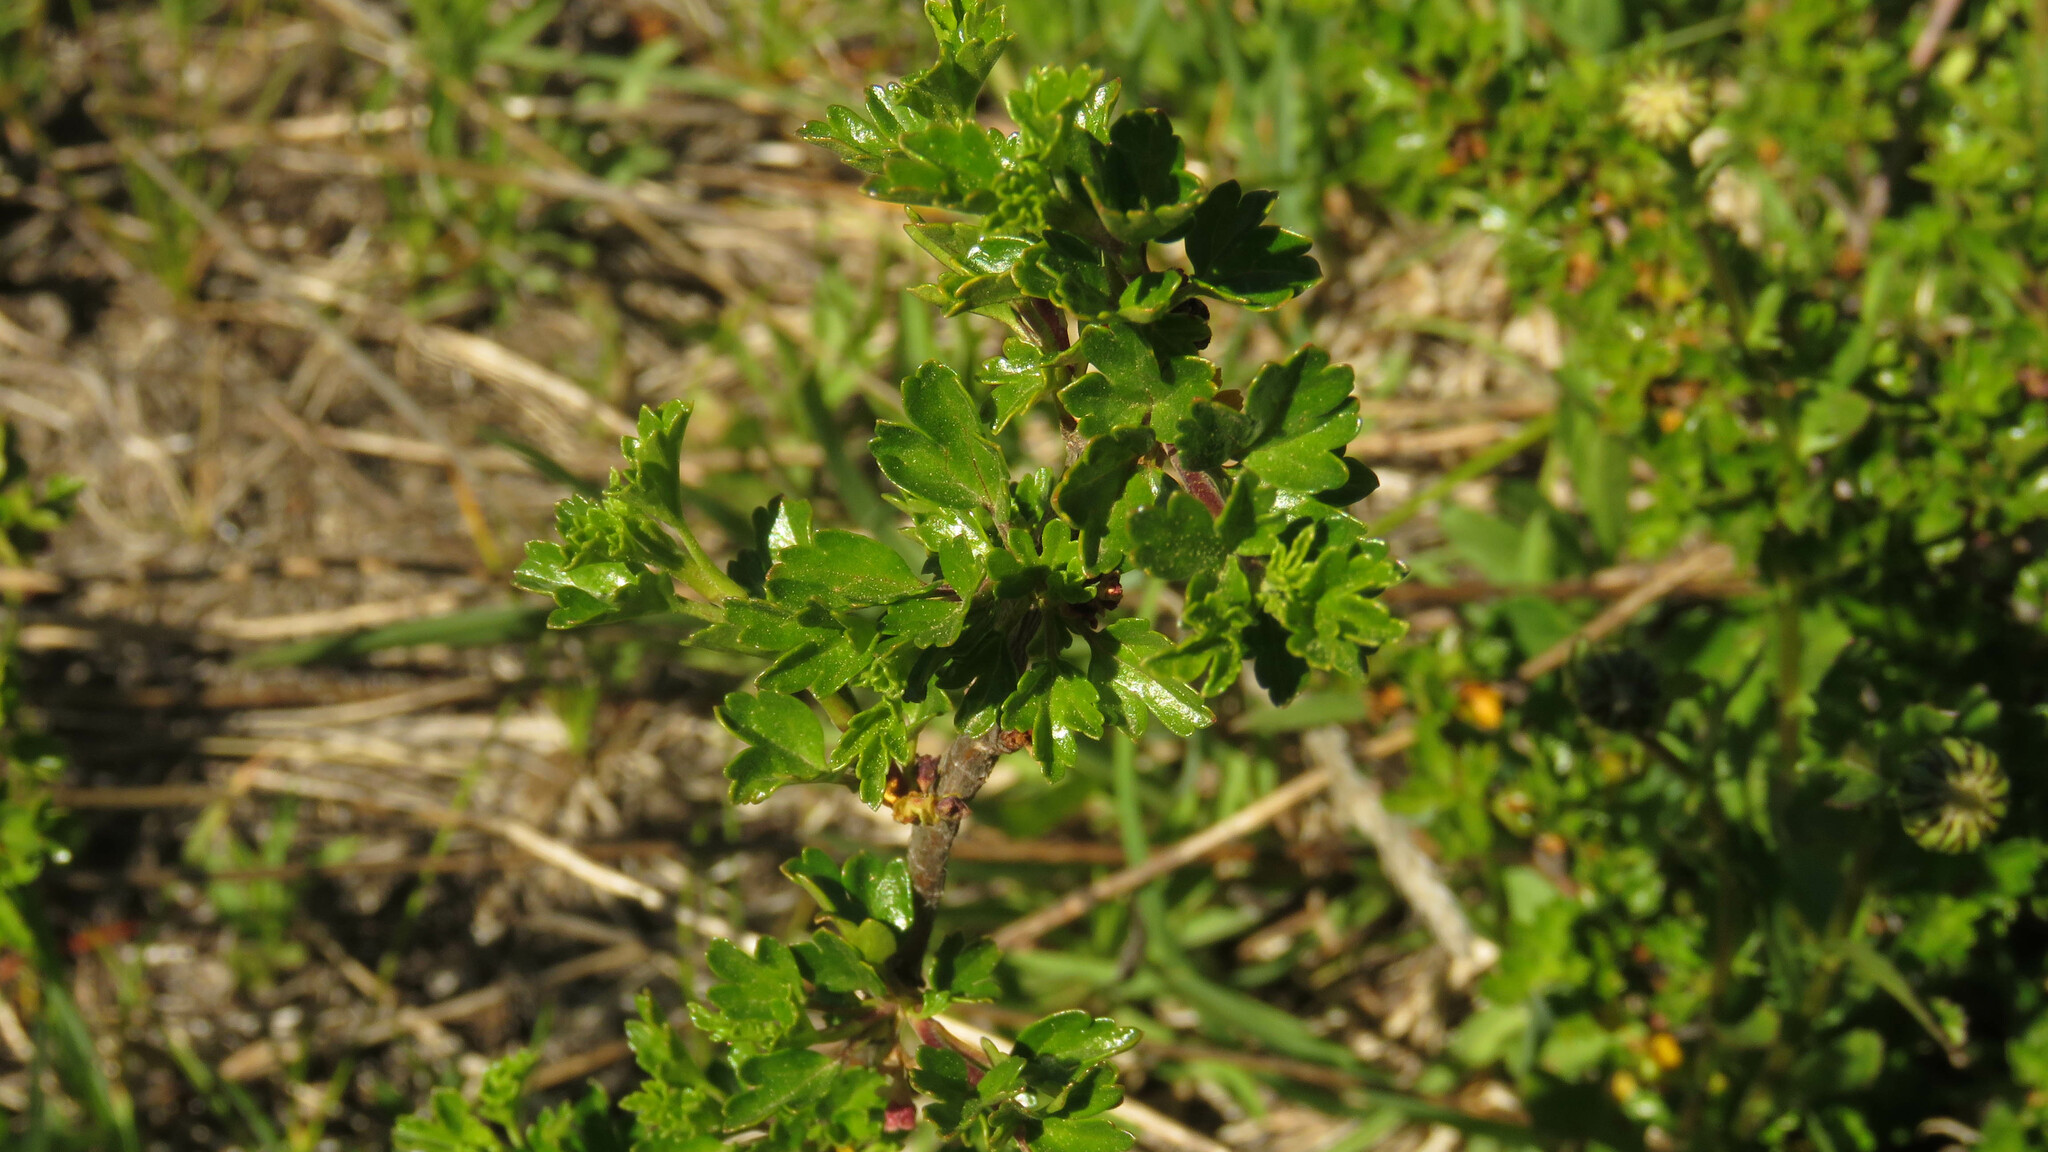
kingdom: Plantae
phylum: Tracheophyta
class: Magnoliopsida
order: Saxifragales
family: Grossulariaceae
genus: Ribes
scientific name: Ribes cucullatum
